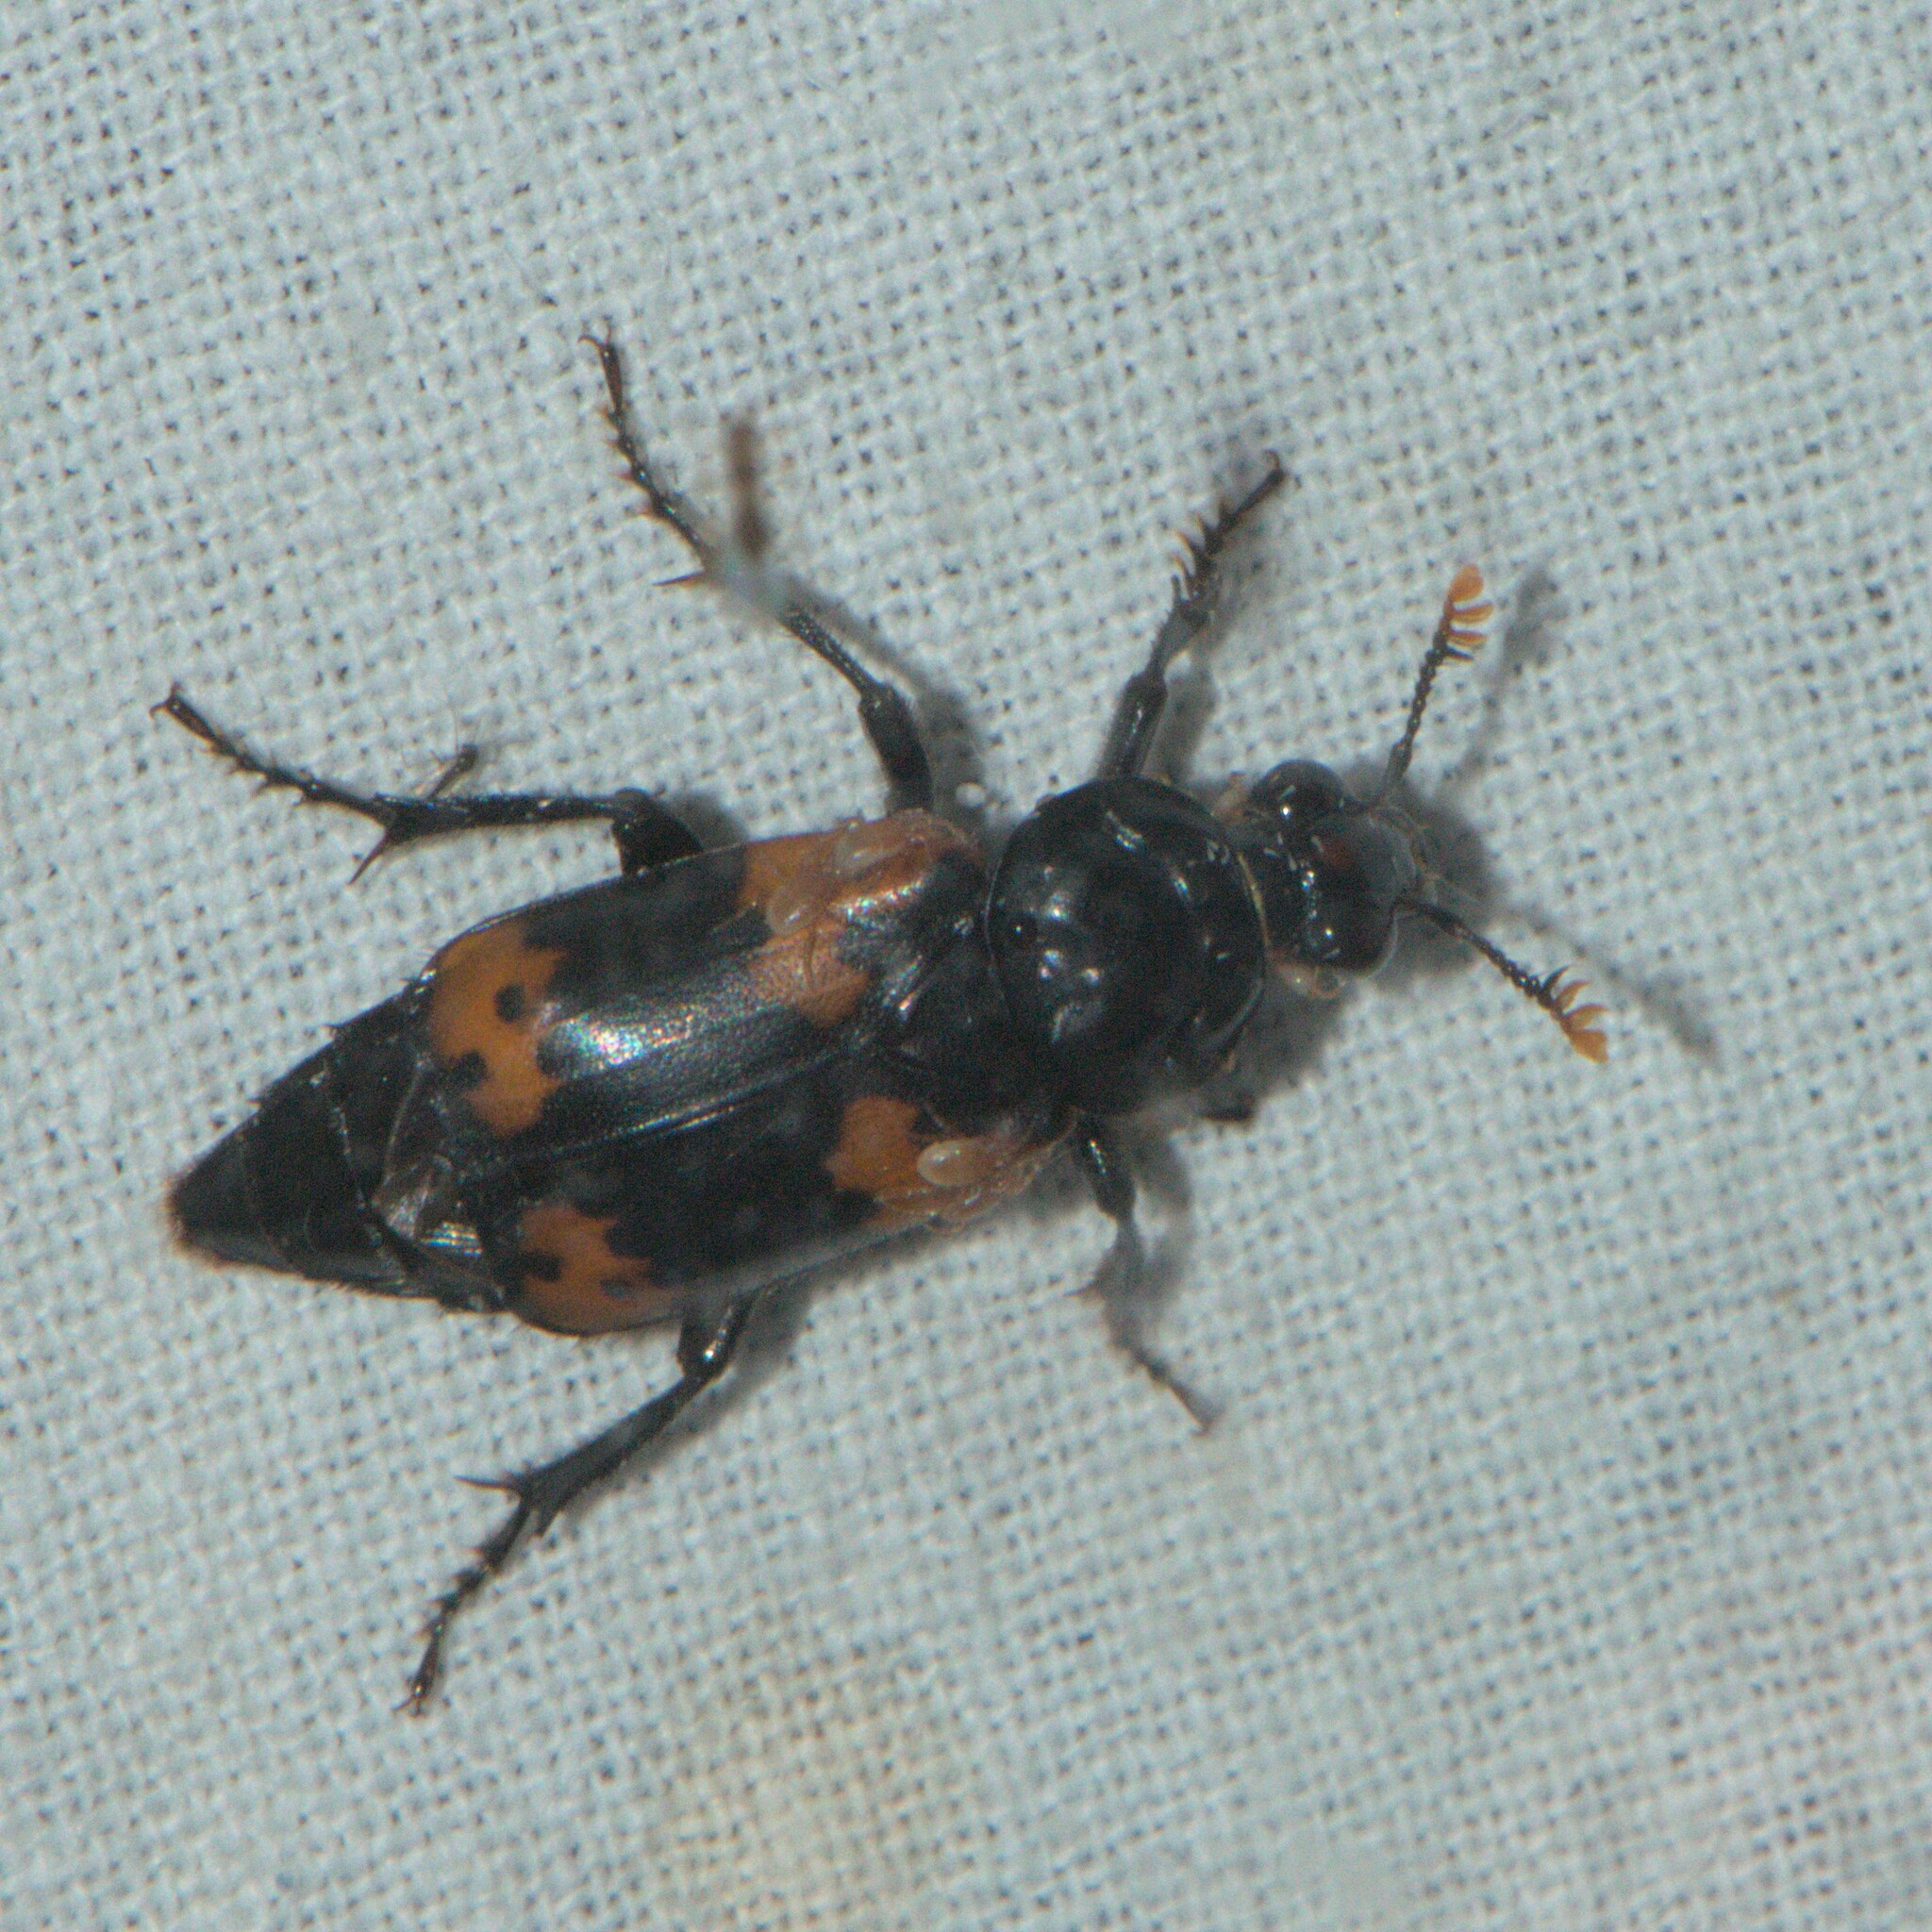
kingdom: Animalia
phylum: Arthropoda
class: Insecta
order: Coleoptera
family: Staphylinidae
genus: Nicrophorus
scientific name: Nicrophorus nepalensis
